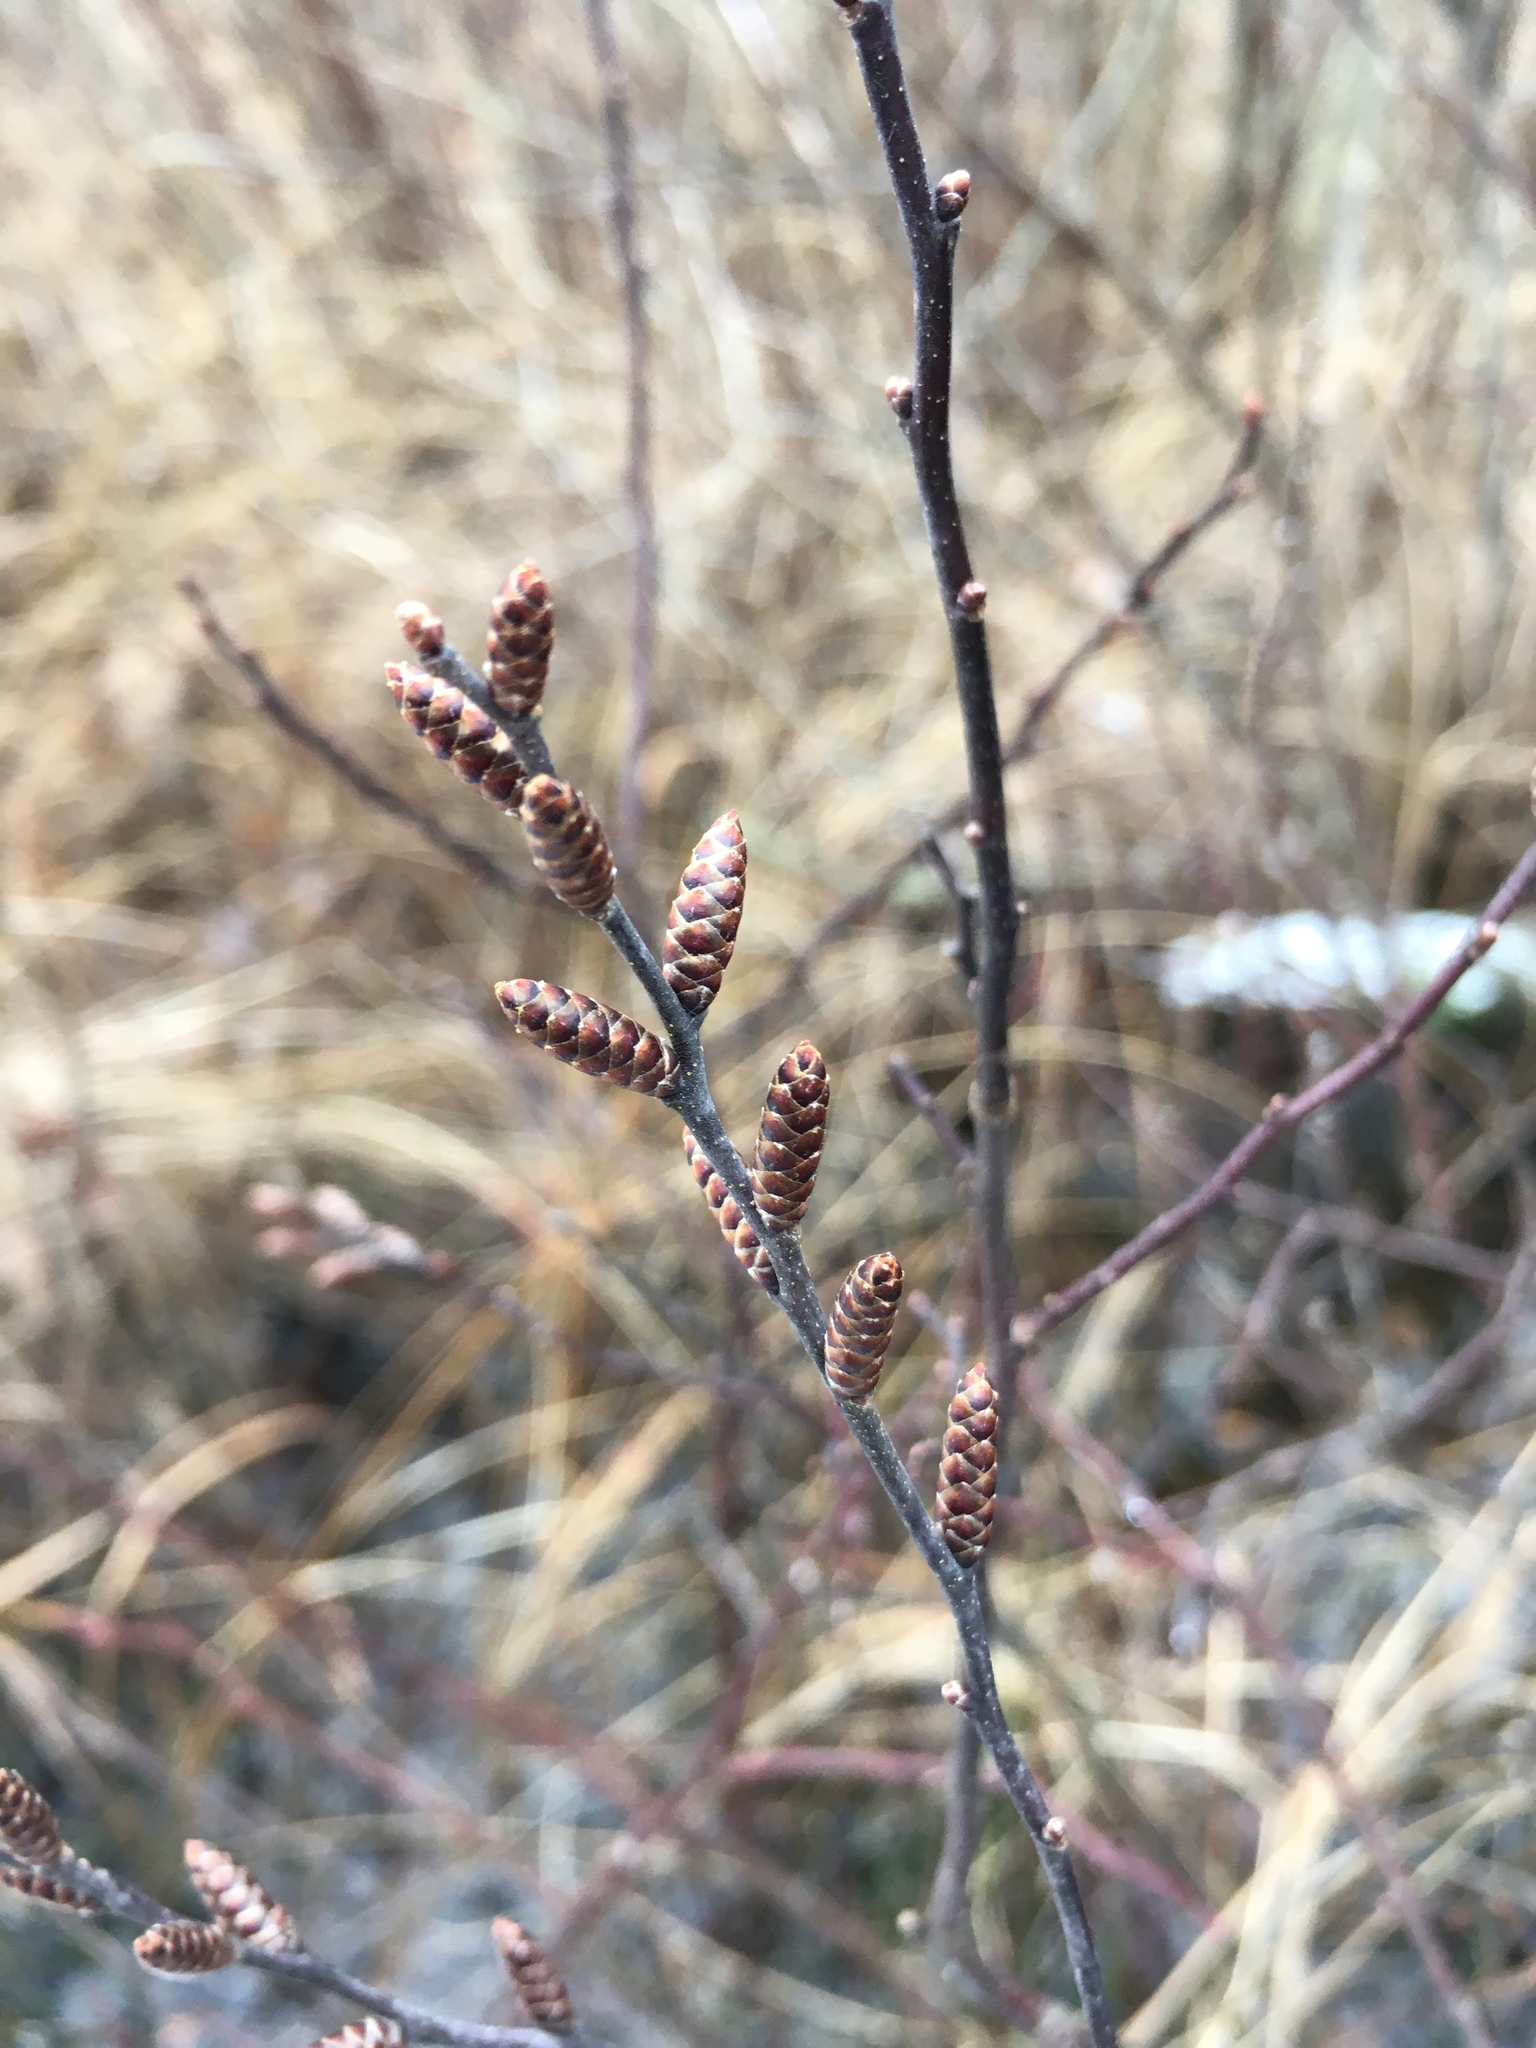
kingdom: Plantae
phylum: Tracheophyta
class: Magnoliopsida
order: Fagales
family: Myricaceae
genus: Myrica
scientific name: Myrica gale
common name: Sweet gale
